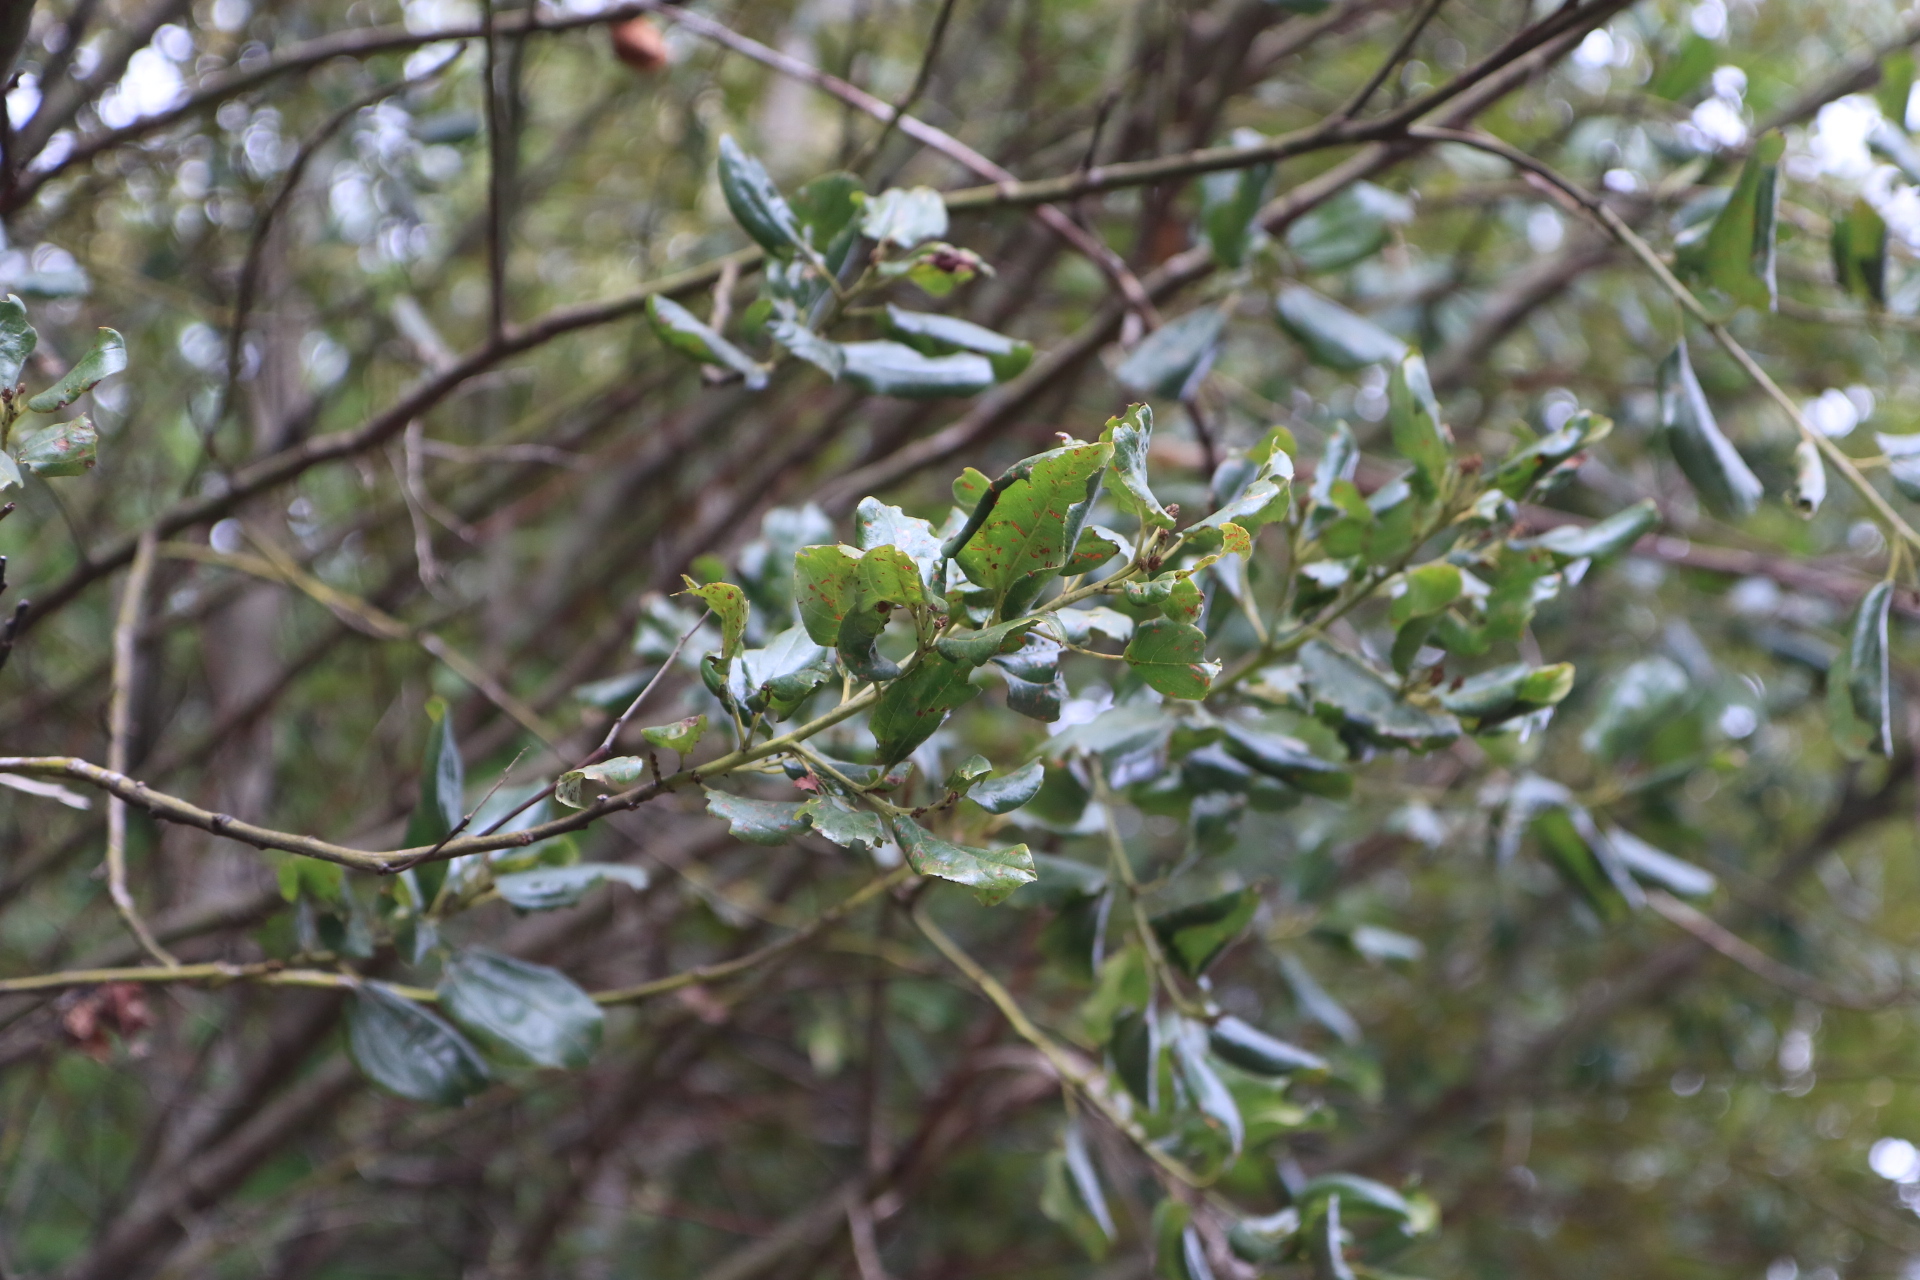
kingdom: Plantae
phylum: Tracheophyta
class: Magnoliopsida
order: Rosales
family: Rhamnaceae
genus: Ceanothus
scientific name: Ceanothus velutinus
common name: Snowbrush
